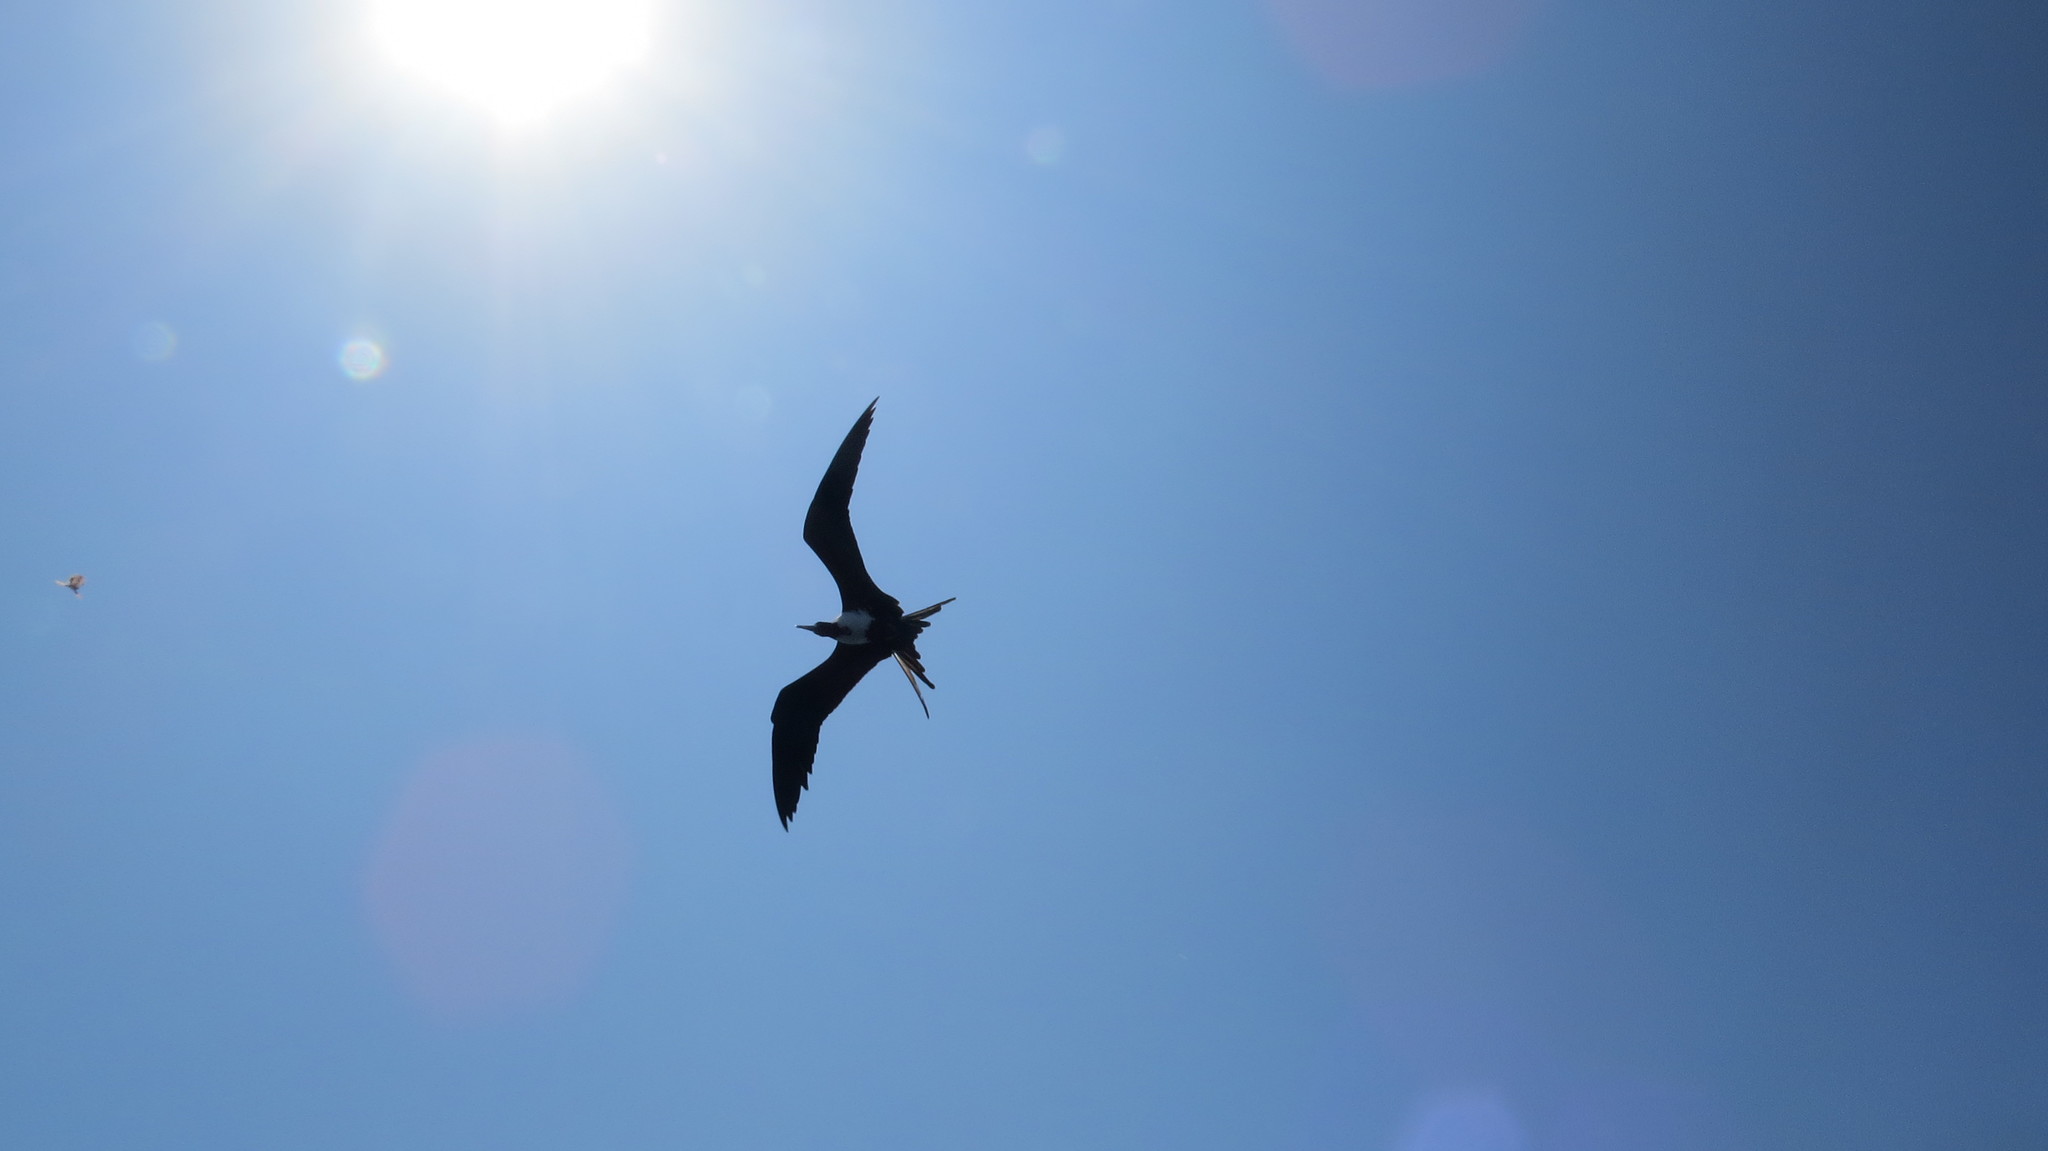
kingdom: Animalia
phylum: Chordata
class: Aves
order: Suliformes
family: Fregatidae
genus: Fregata
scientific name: Fregata magnificens
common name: Magnificent frigatebird
